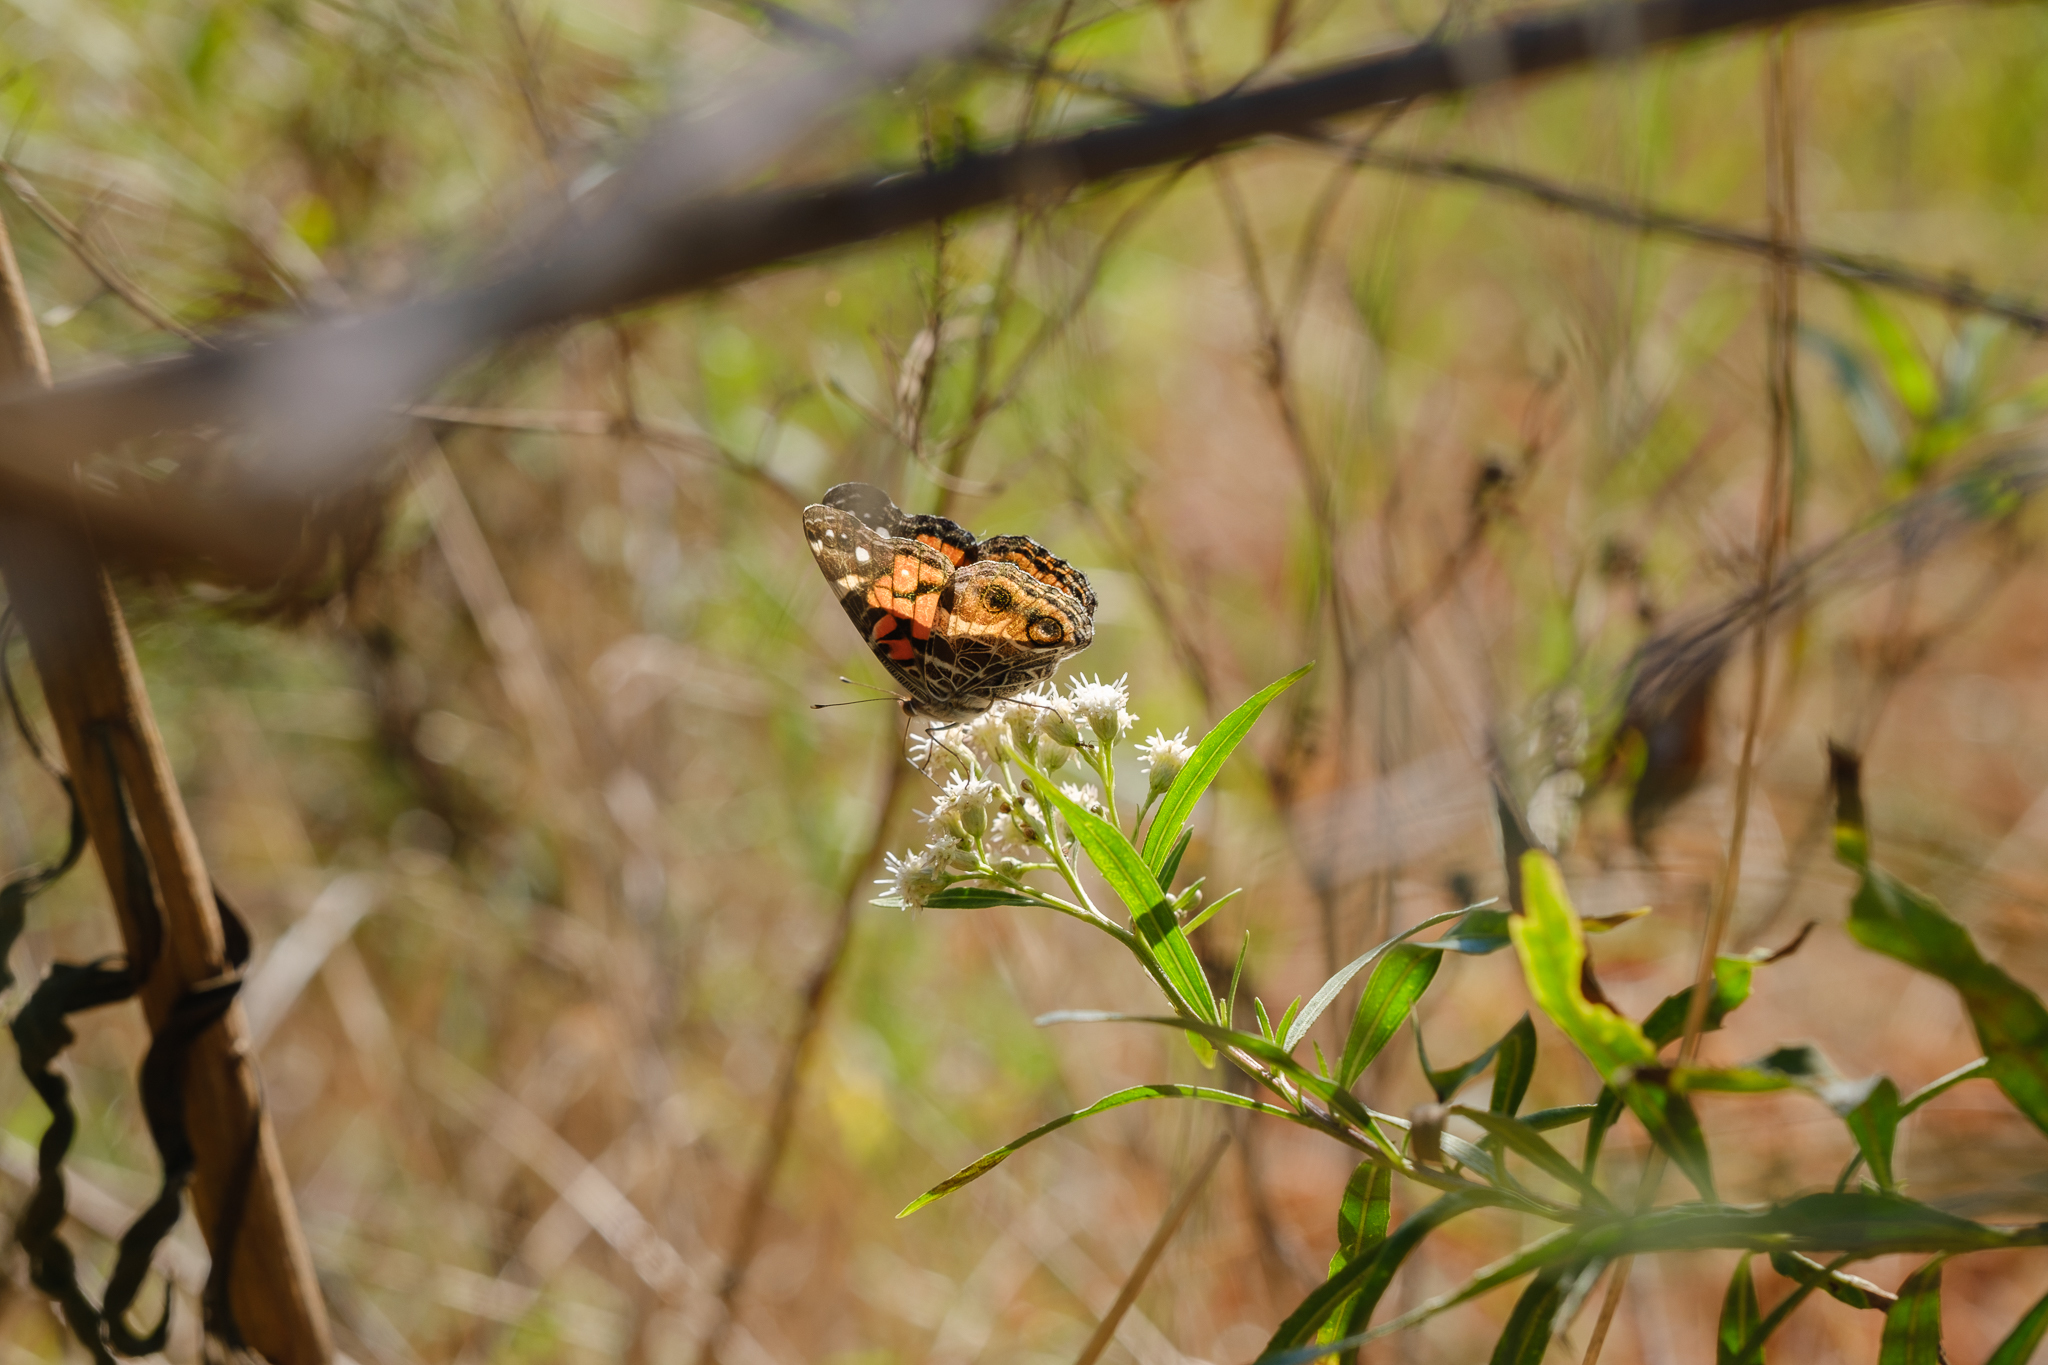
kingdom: Animalia
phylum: Arthropoda
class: Insecta
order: Lepidoptera
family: Nymphalidae
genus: Vanessa
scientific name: Vanessa virginiensis
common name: American lady
